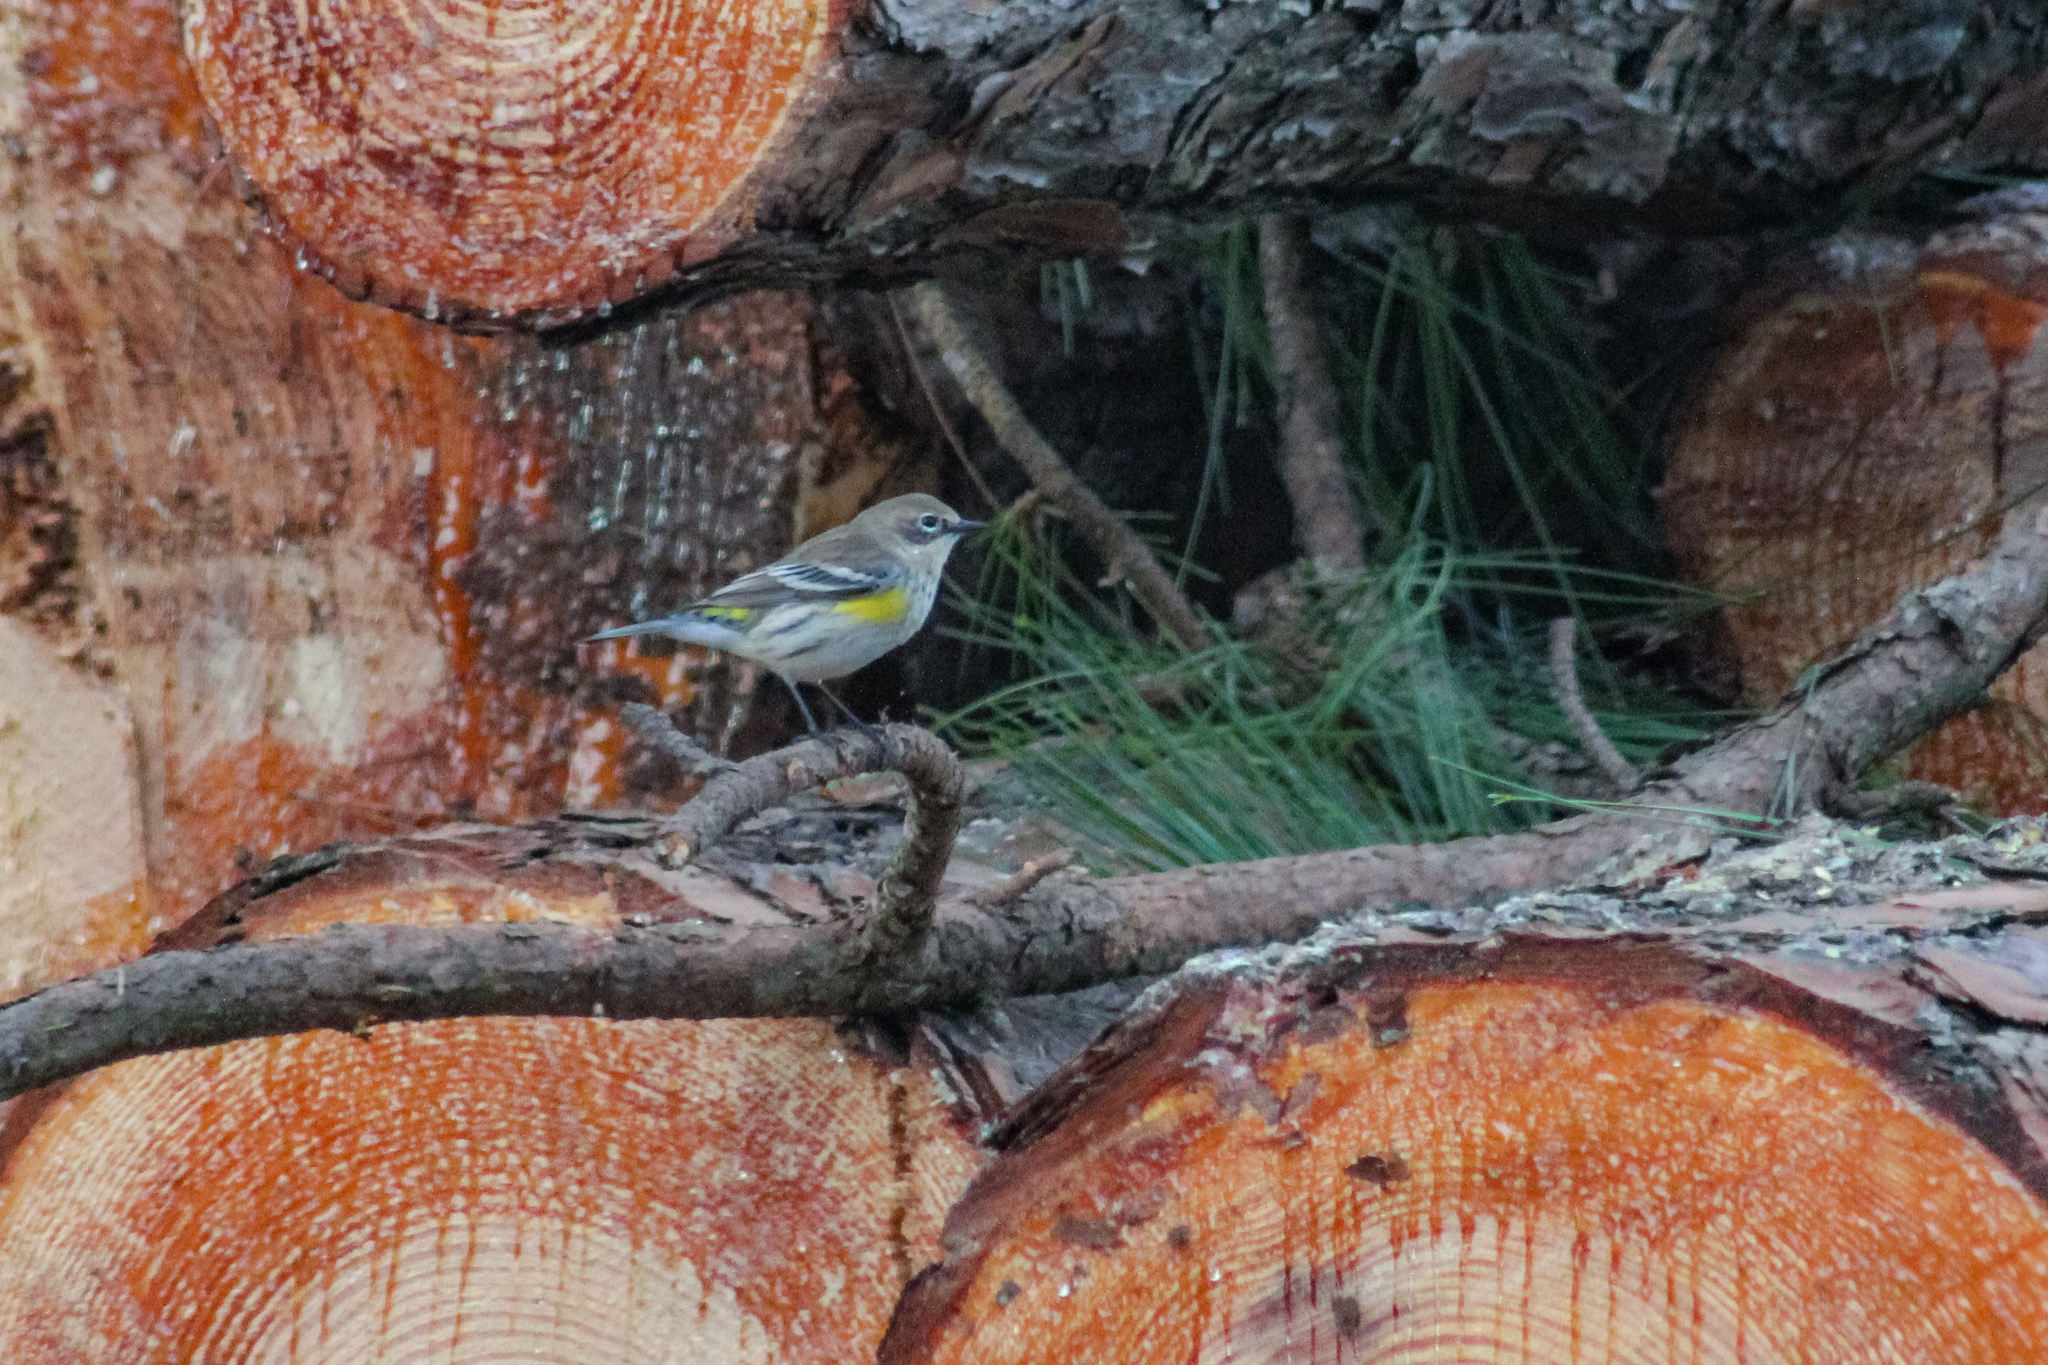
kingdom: Animalia
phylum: Chordata
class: Aves
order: Passeriformes
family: Parulidae
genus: Setophaga
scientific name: Setophaga coronata
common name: Myrtle warbler
